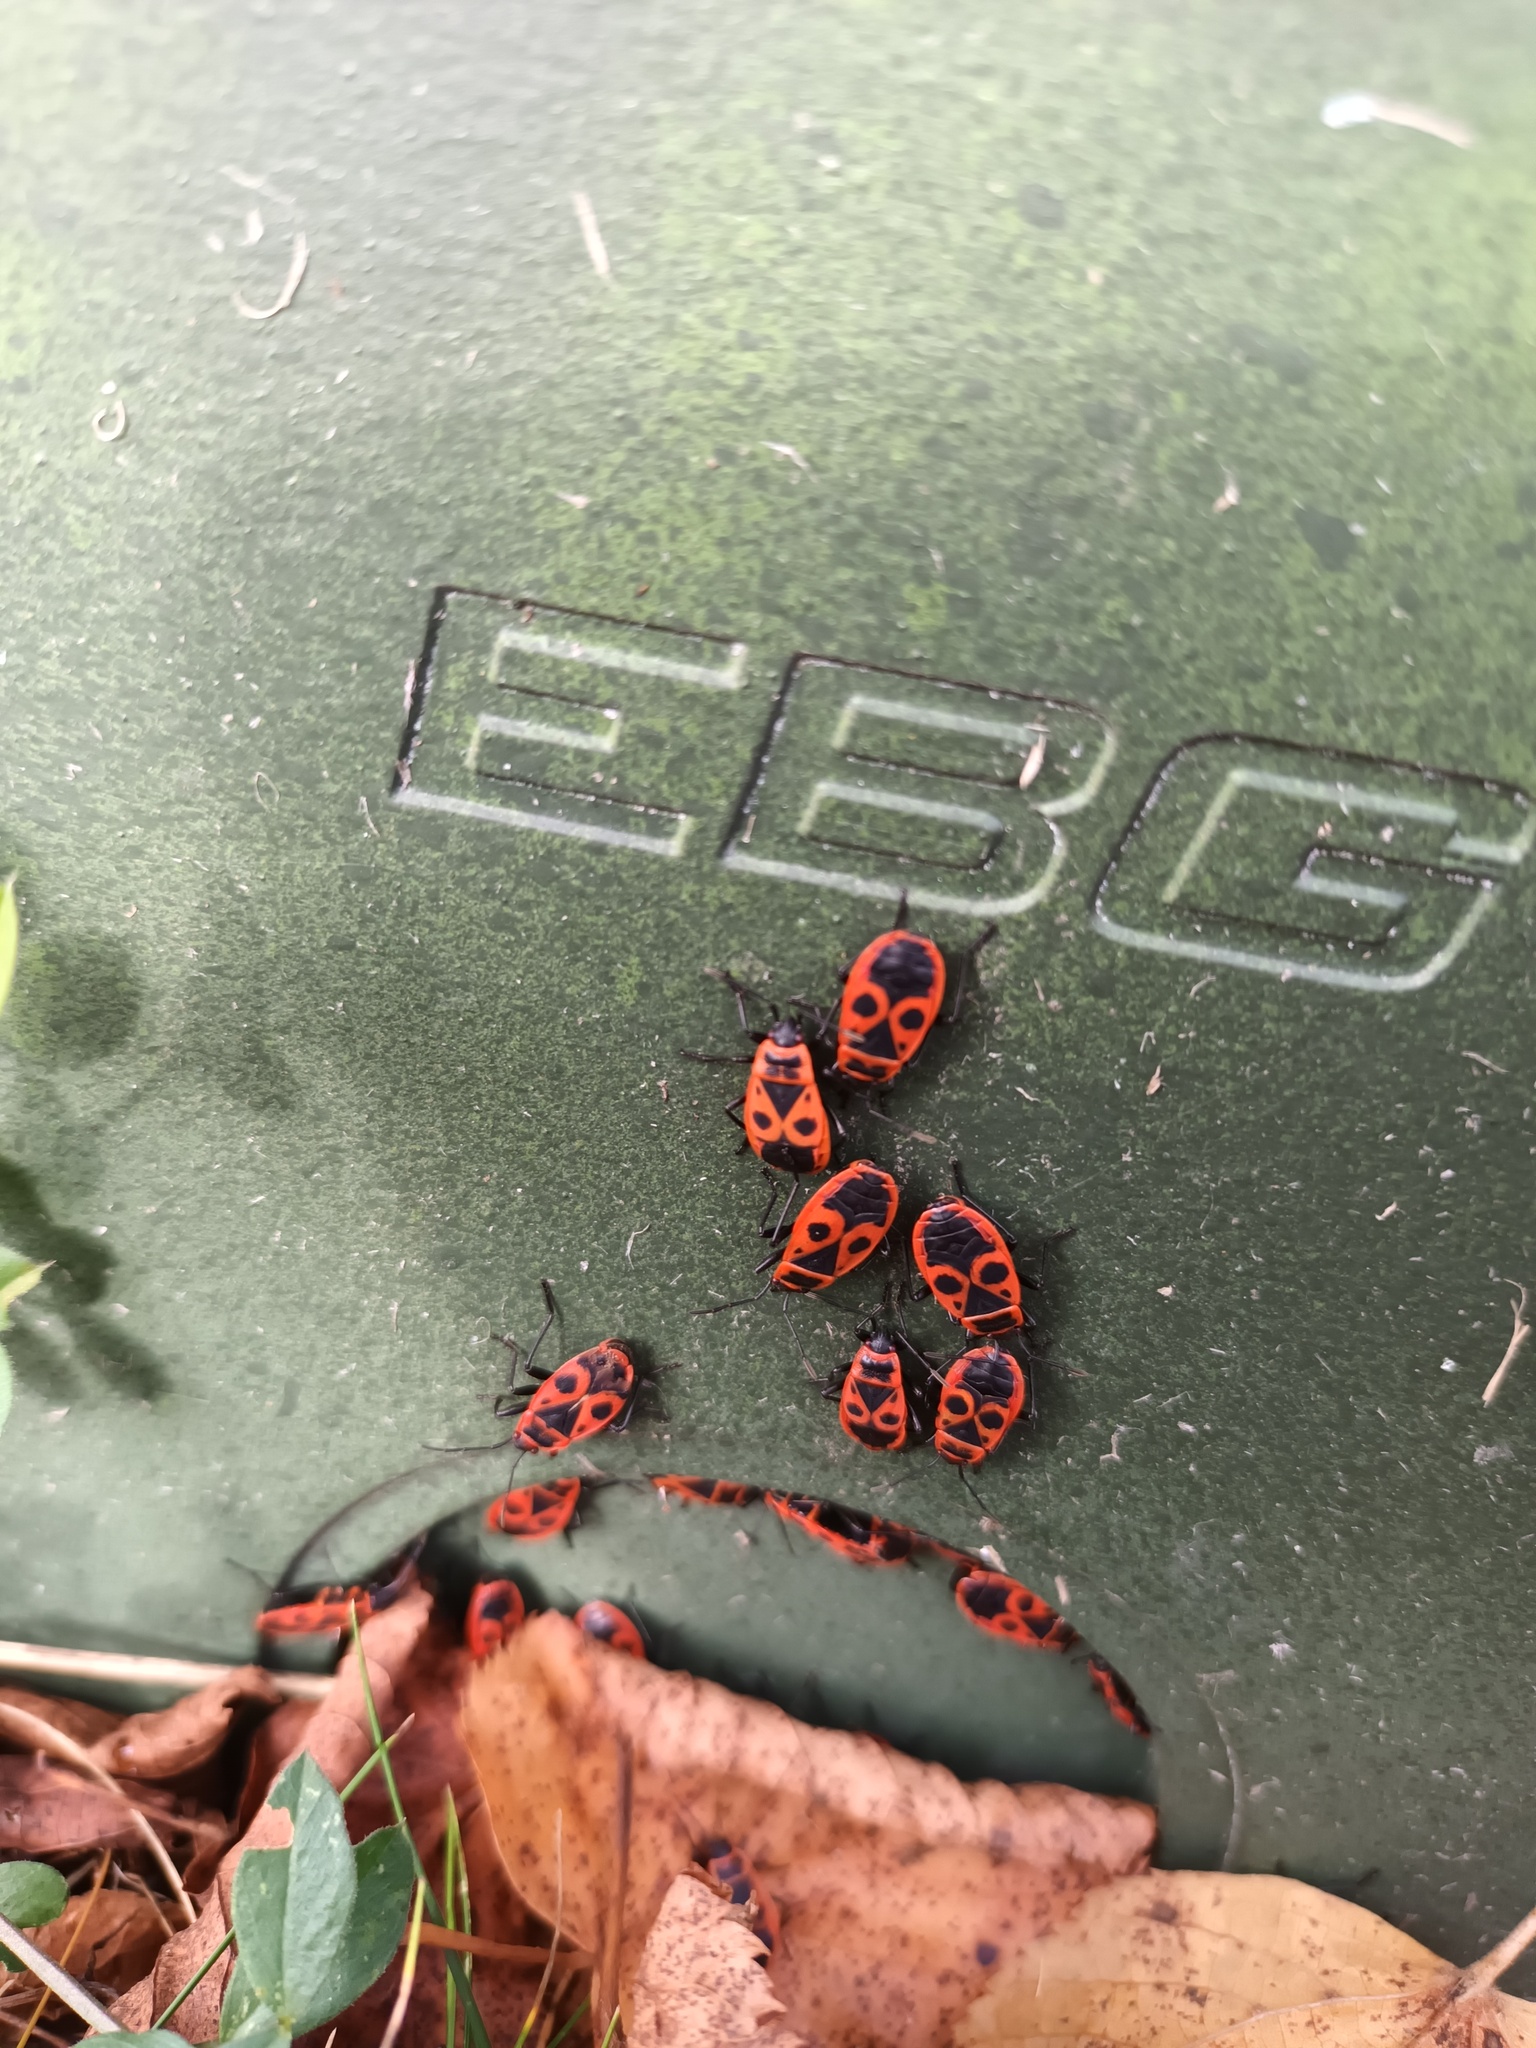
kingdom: Animalia
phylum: Arthropoda
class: Insecta
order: Hemiptera
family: Pyrrhocoridae
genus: Pyrrhocoris
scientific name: Pyrrhocoris apterus
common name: Firebug
